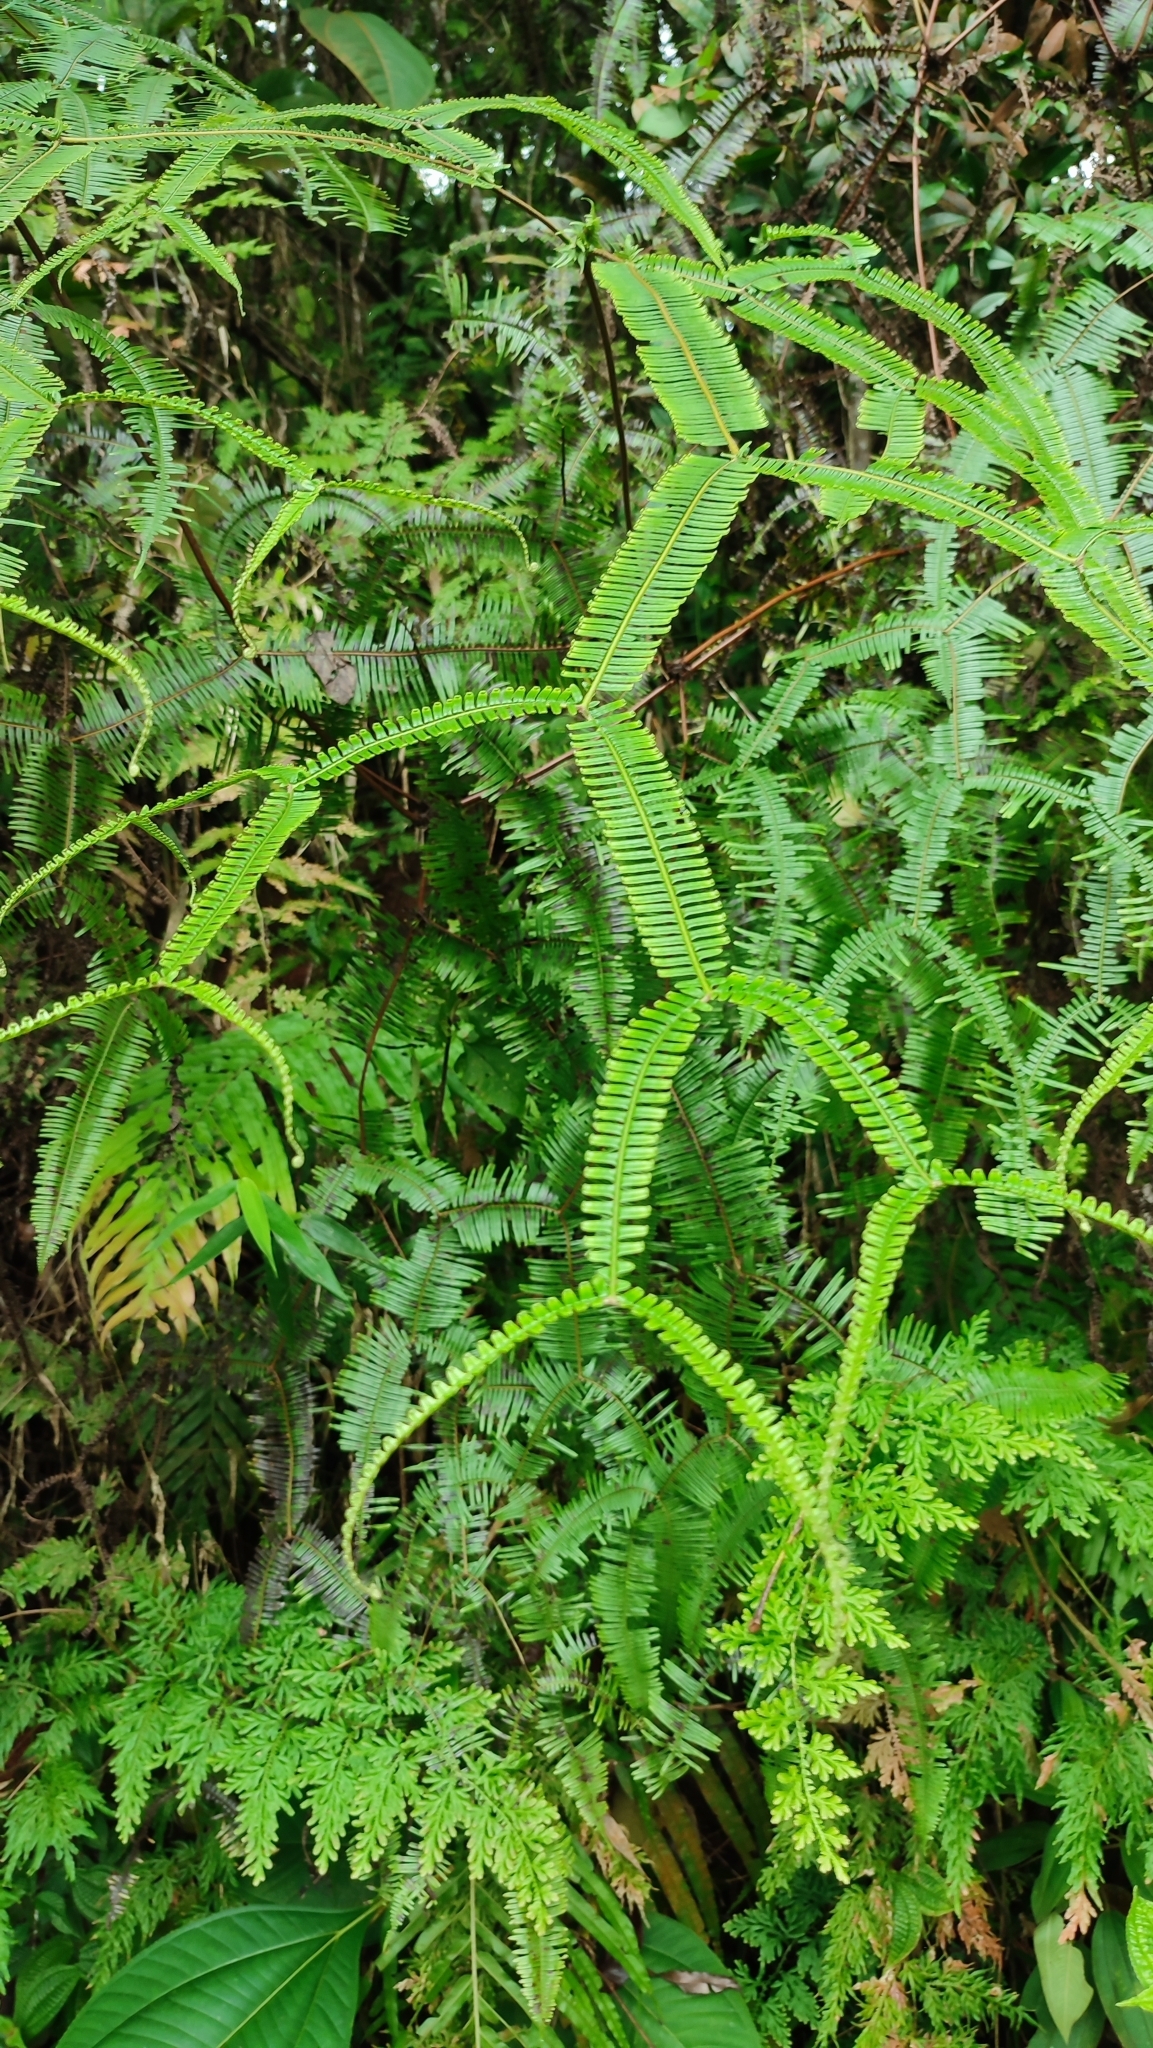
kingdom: Plantae
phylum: Tracheophyta
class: Polypodiopsida
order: Gleicheniales
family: Gleicheniaceae
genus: Sticherus
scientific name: Sticherus truncatus
